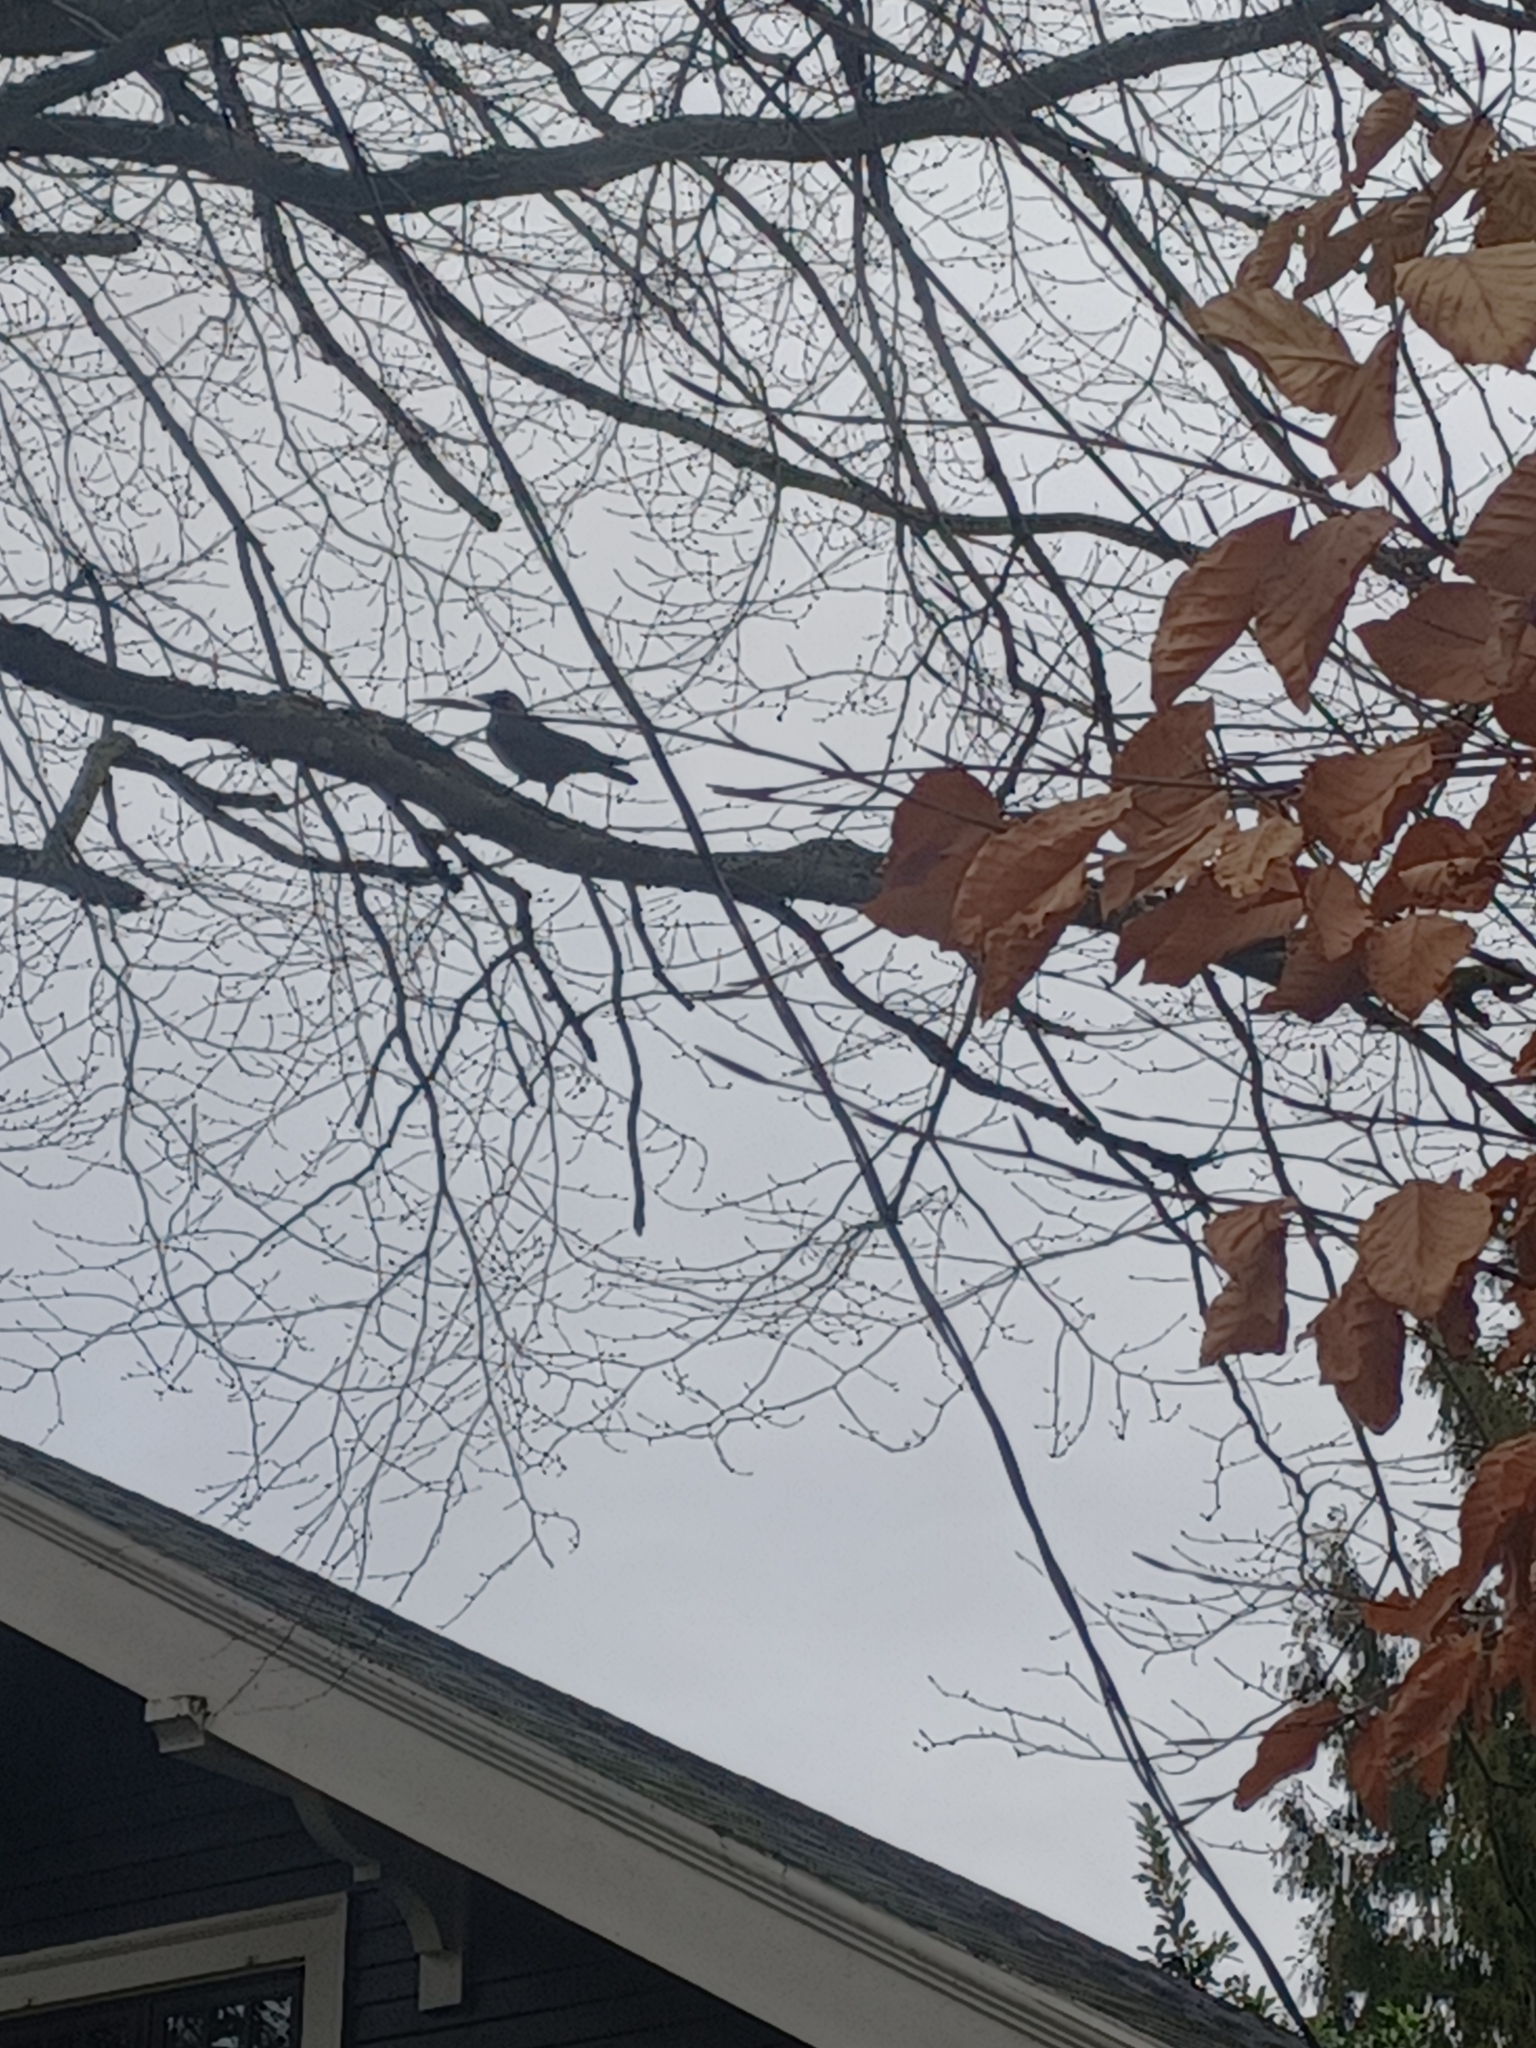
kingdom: Animalia
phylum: Chordata
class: Aves
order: Passeriformes
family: Corvidae
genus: Corvus
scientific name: Corvus brachyrhynchos
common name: American crow
